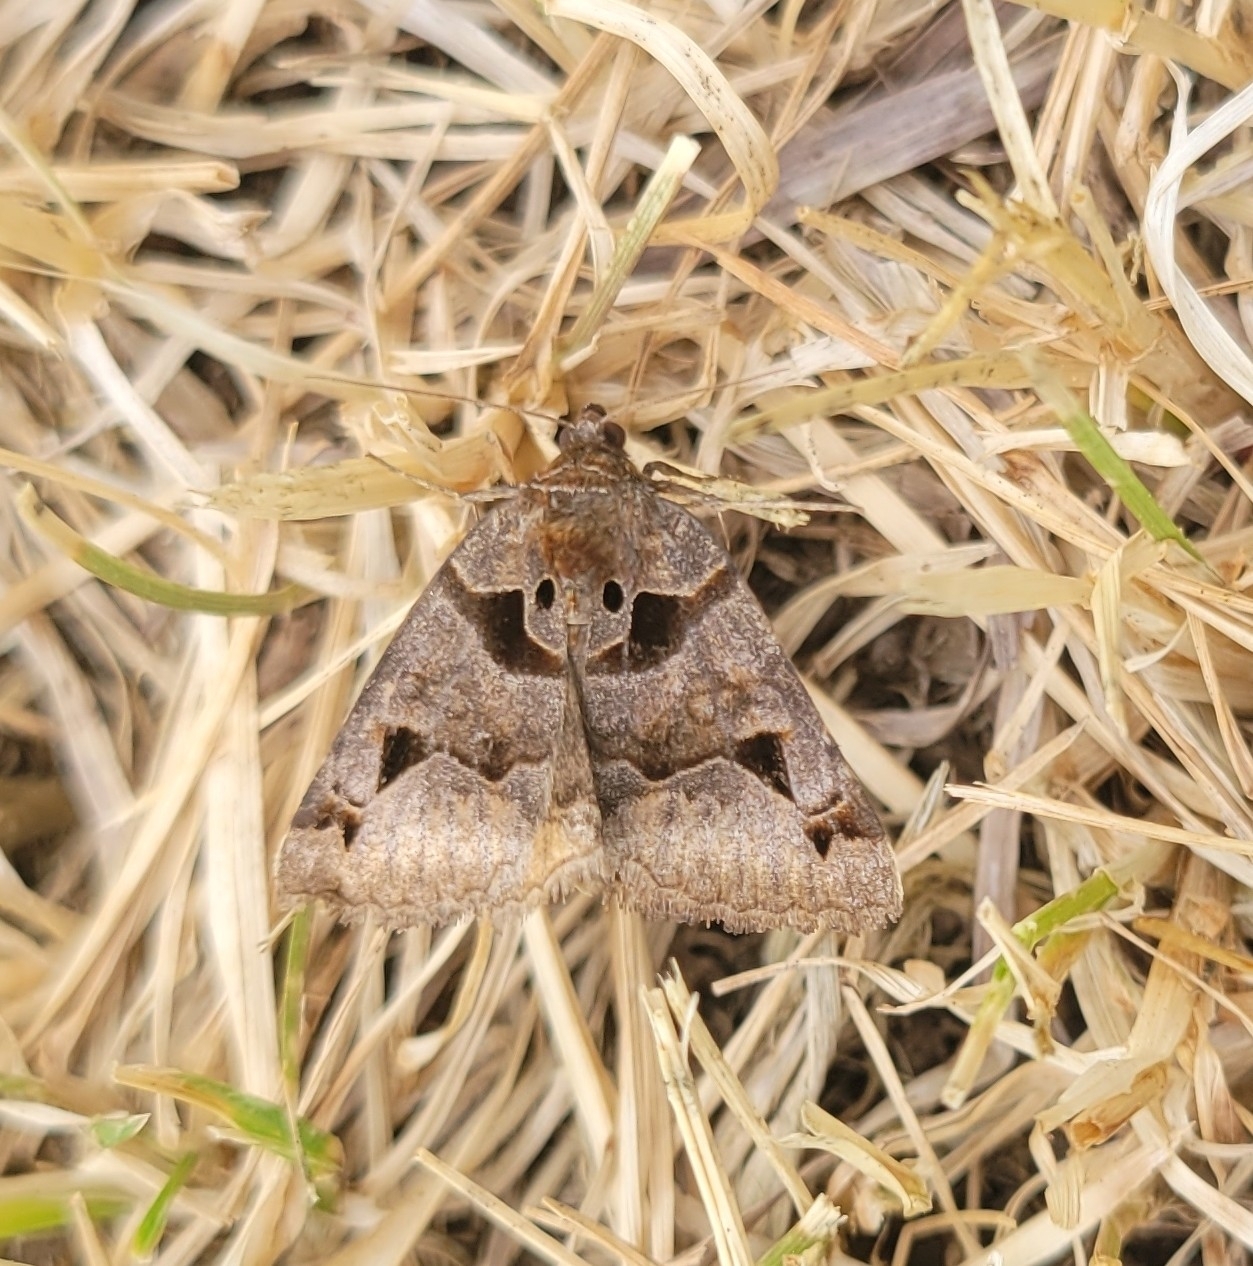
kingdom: Animalia
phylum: Arthropoda
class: Insecta
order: Lepidoptera
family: Erebidae
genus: Euclidia
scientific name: Euclidia cuspidea
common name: Toothed somberwing
